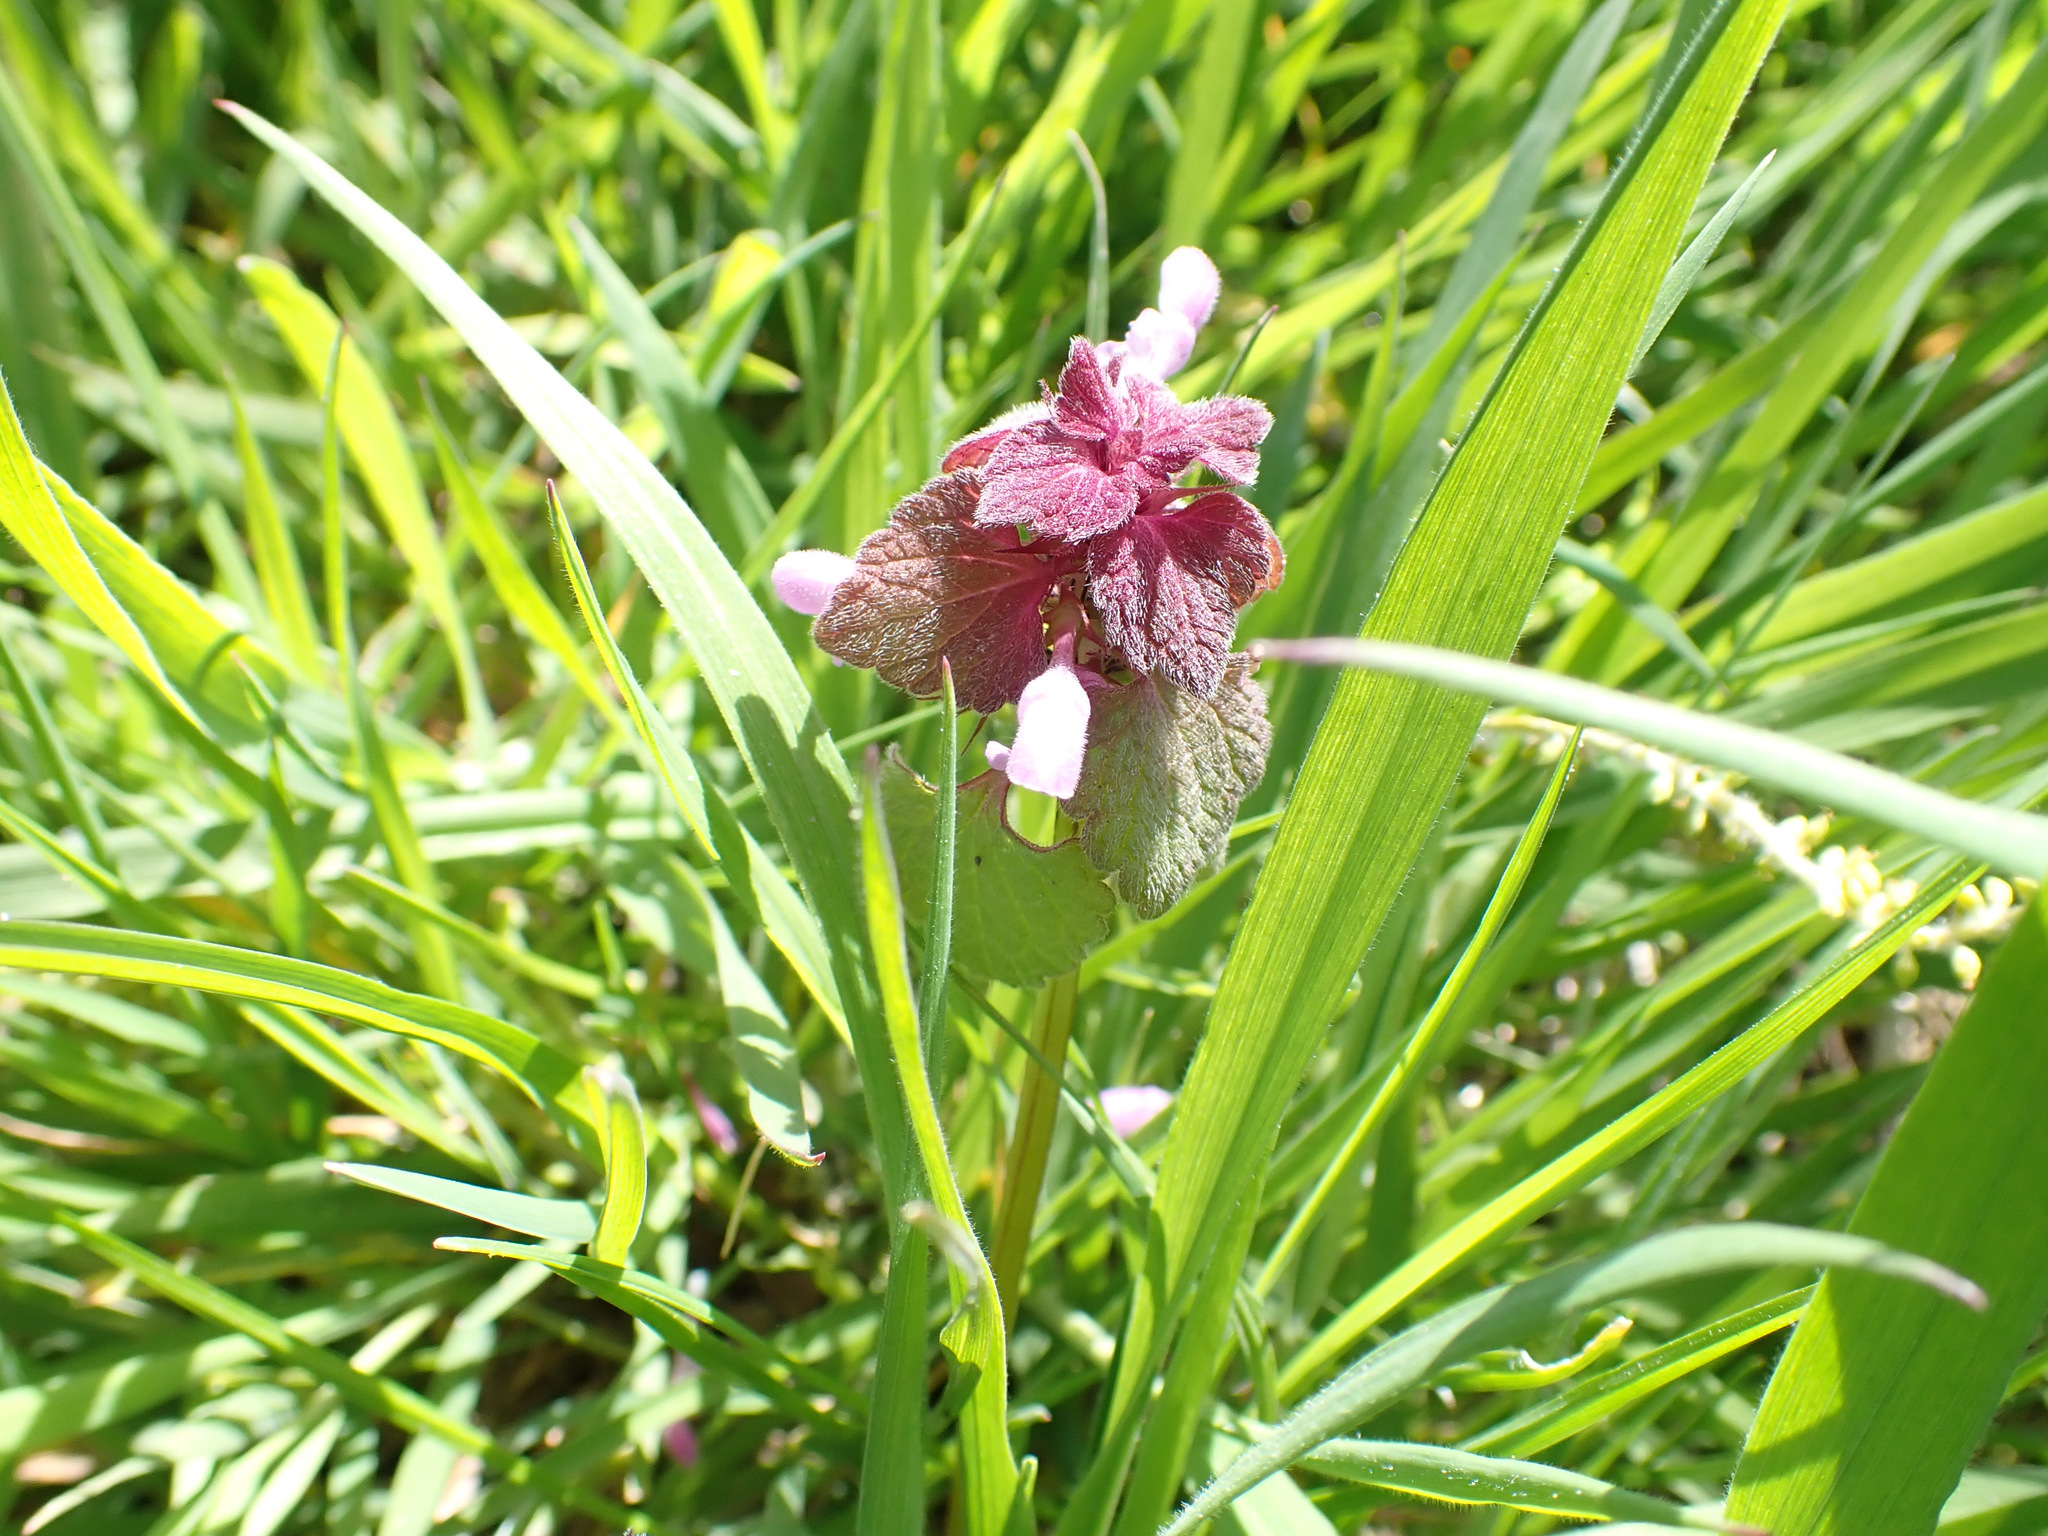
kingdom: Plantae
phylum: Tracheophyta
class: Magnoliopsida
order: Lamiales
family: Lamiaceae
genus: Lamium
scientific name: Lamium purpureum
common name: Red dead-nettle
